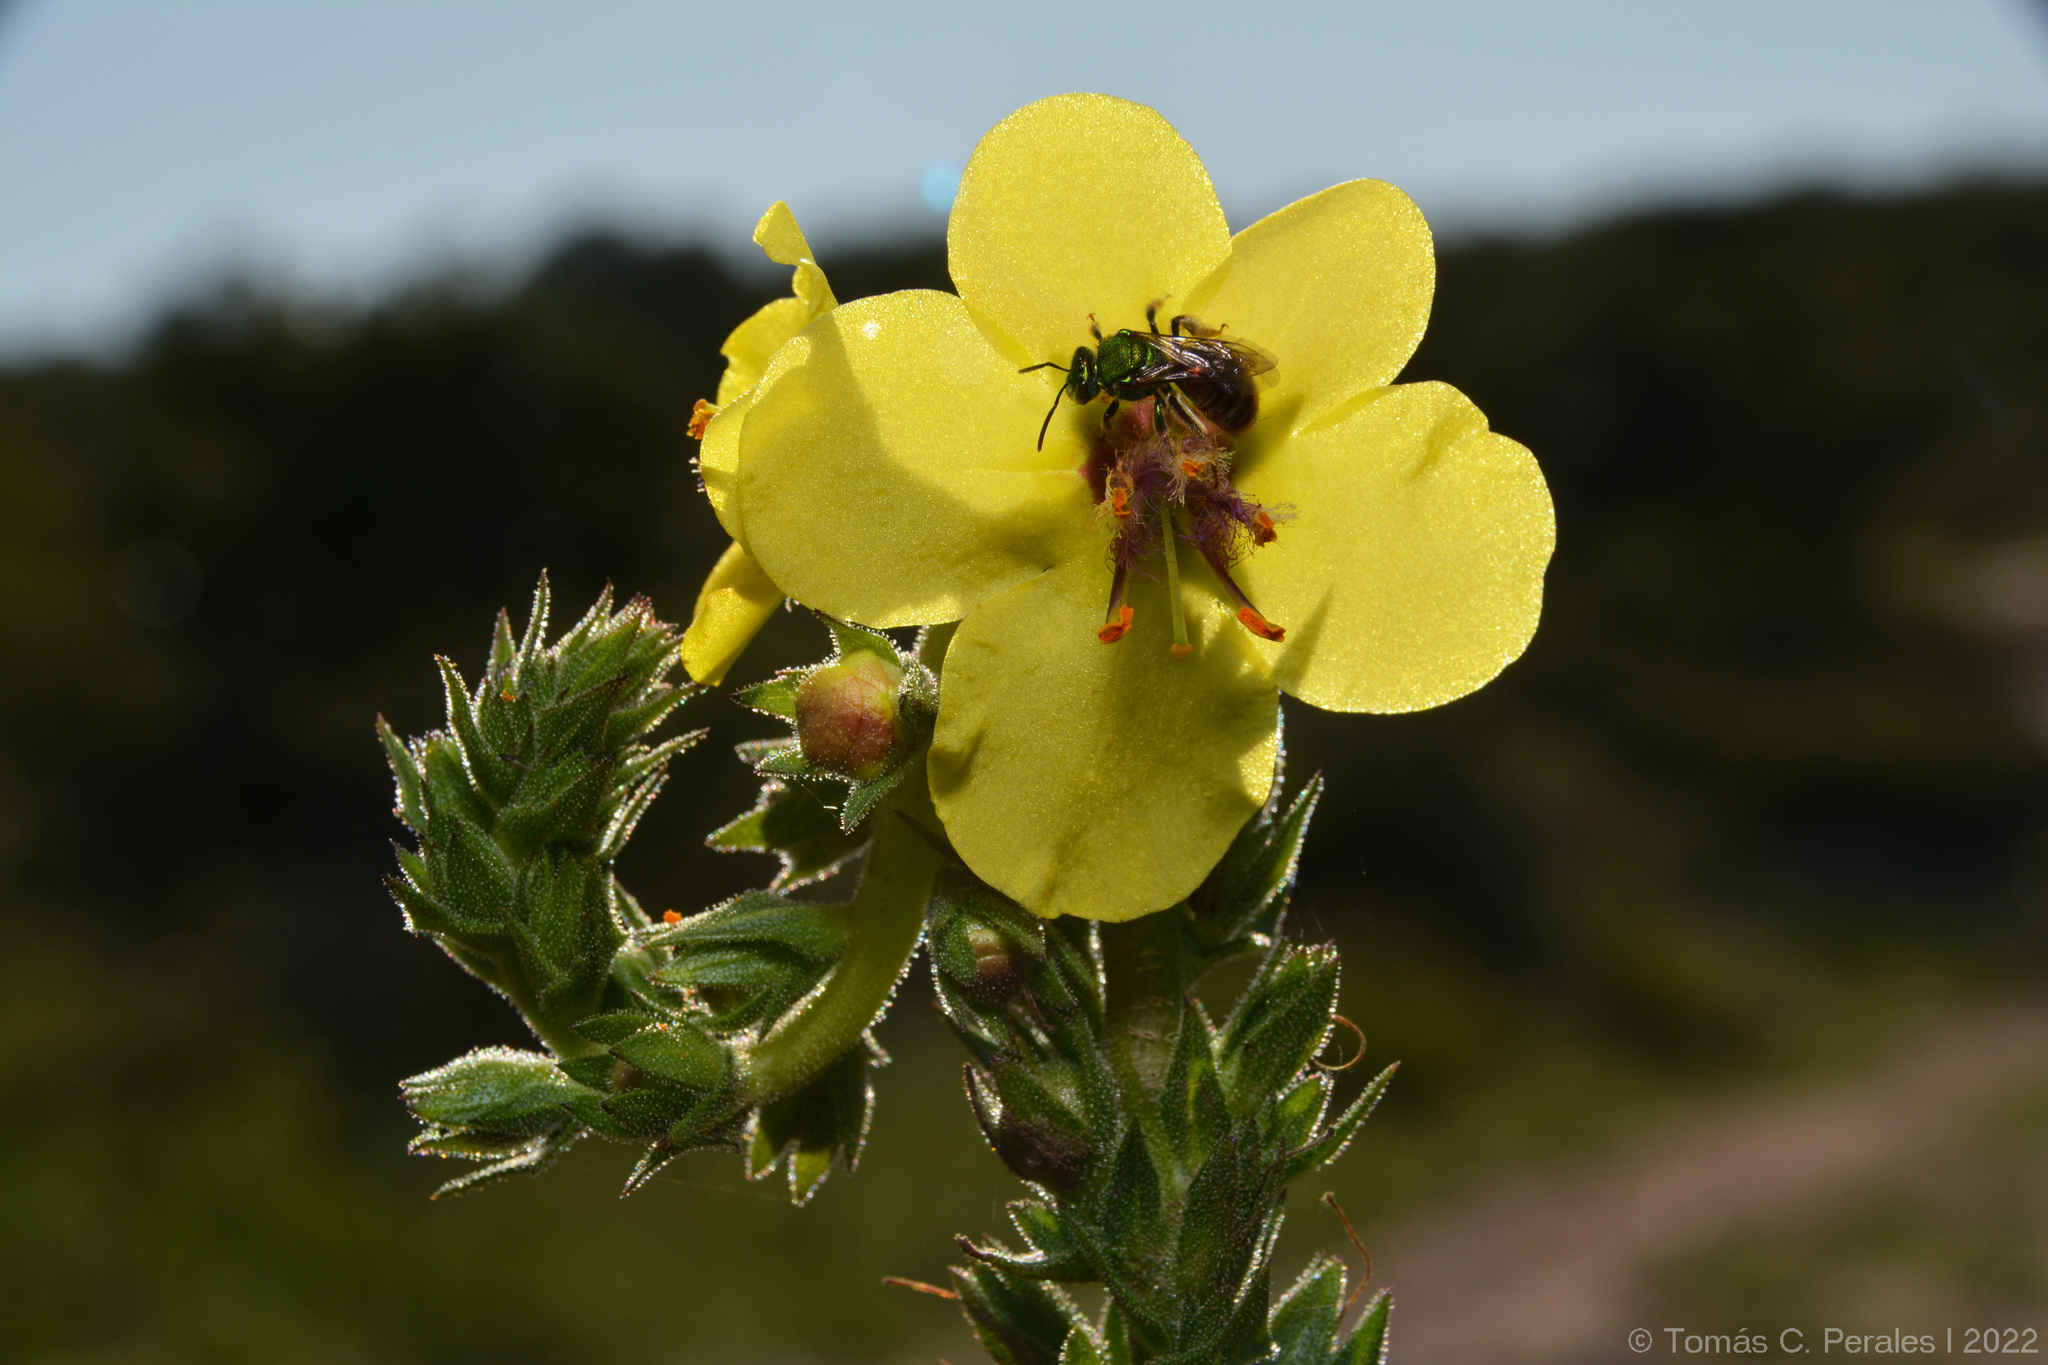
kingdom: Plantae
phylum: Tracheophyta
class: Magnoliopsida
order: Lamiales
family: Scrophulariaceae
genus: Verbascum
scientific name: Verbascum virgatum
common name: Twiggy mullein
